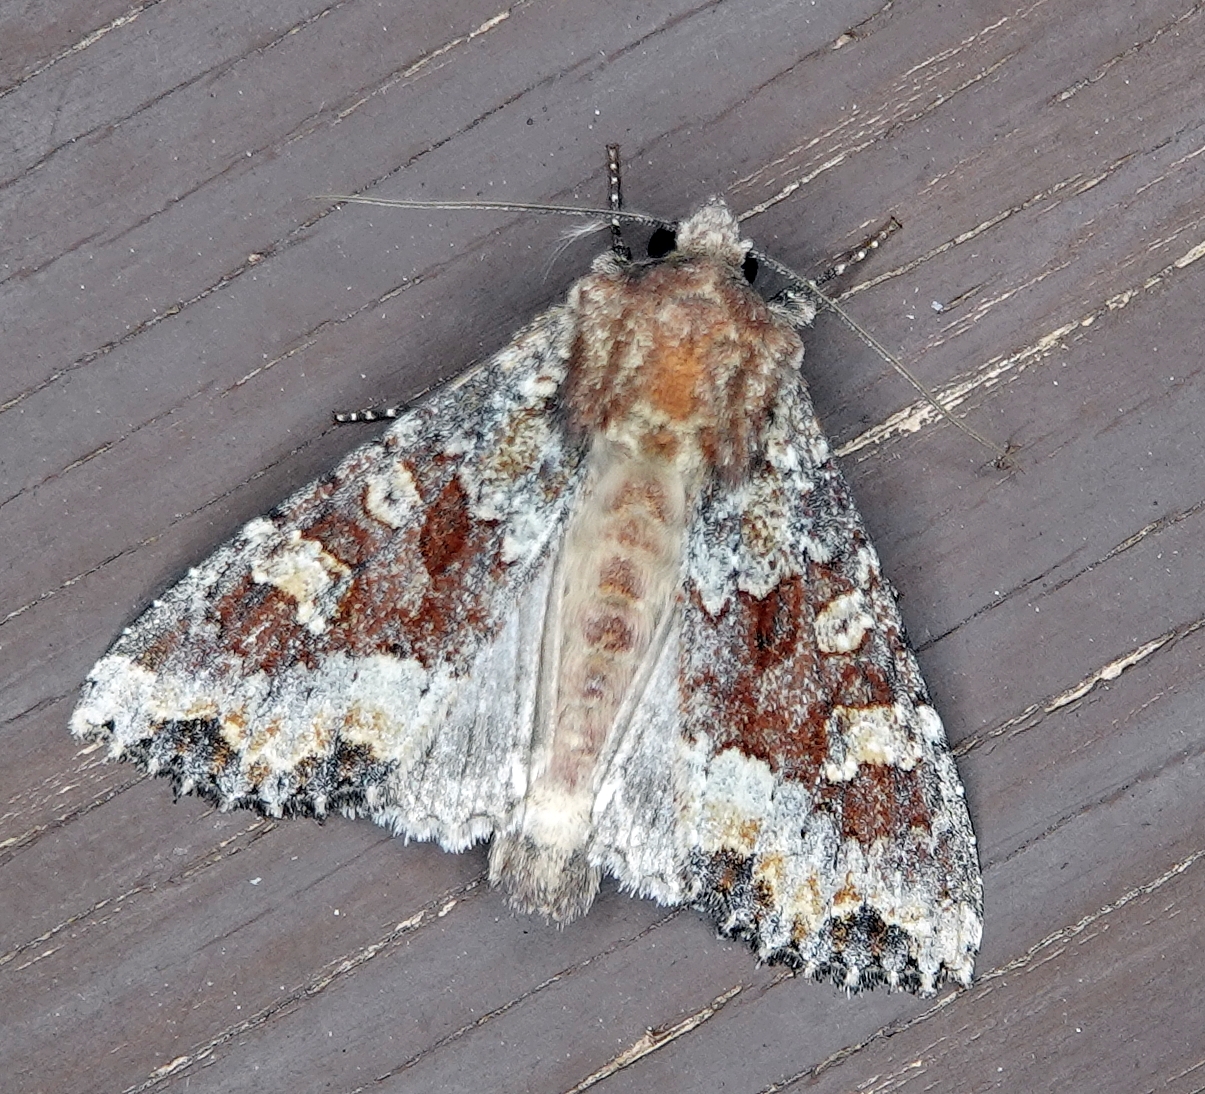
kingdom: Animalia
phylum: Arthropoda
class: Insecta
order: Lepidoptera
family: Noctuidae
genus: Apamea
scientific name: Apamea amputatrix
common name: Yellow-headed cutworm moth
